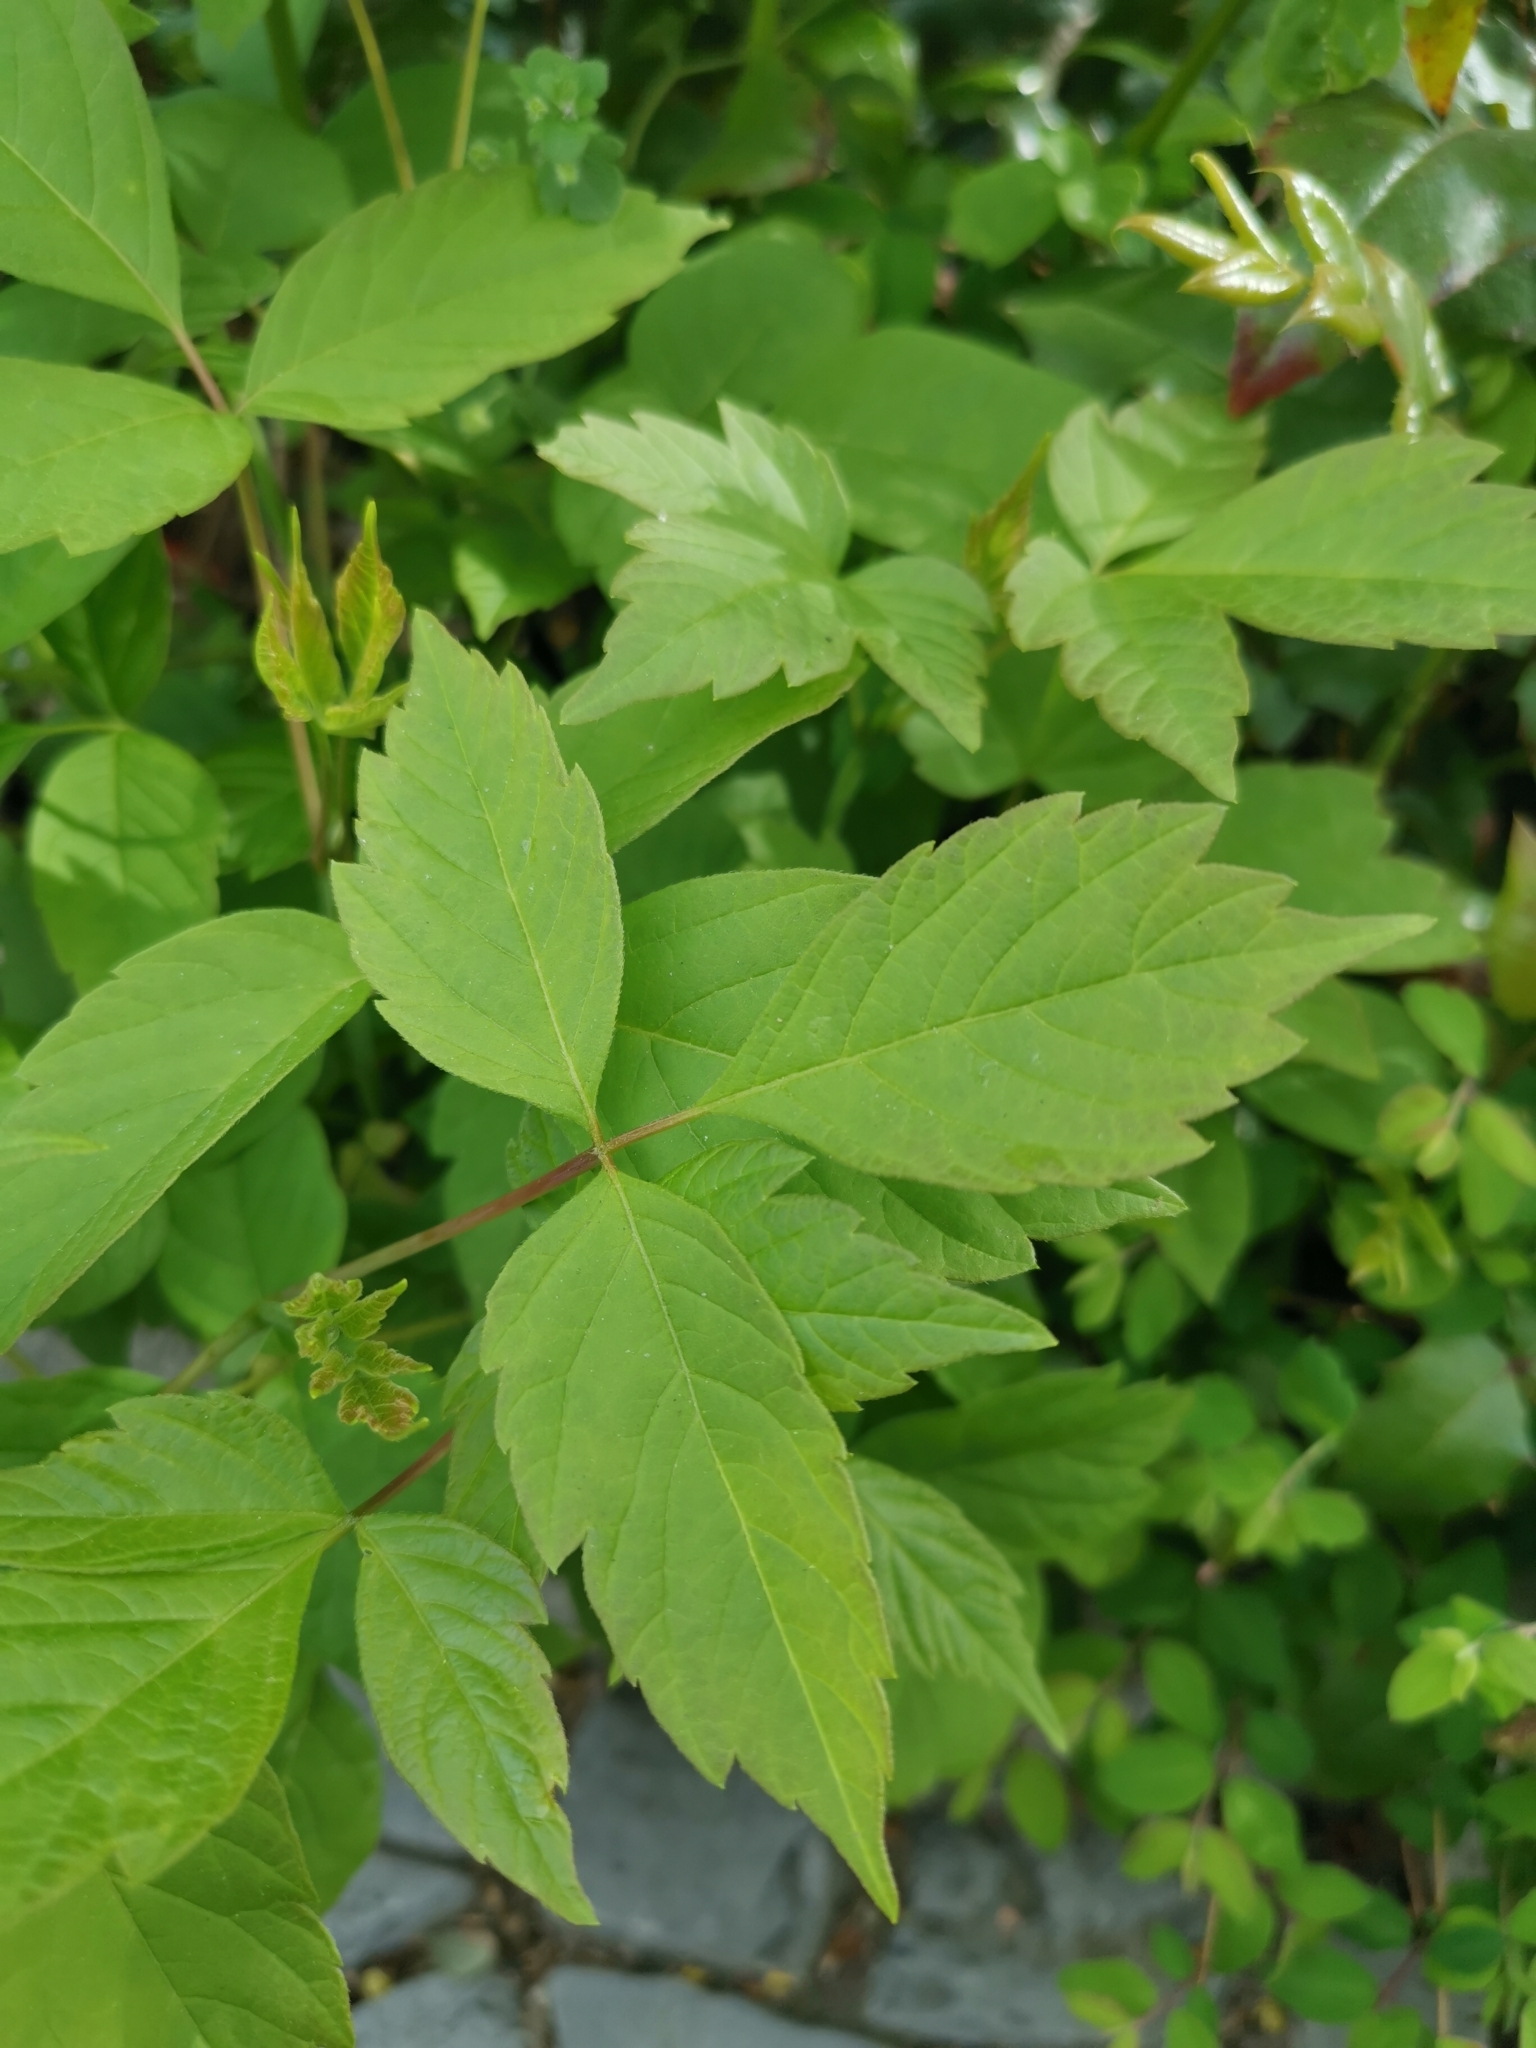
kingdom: Plantae
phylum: Tracheophyta
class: Magnoliopsida
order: Sapindales
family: Sapindaceae
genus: Acer
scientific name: Acer negundo
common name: Ashleaf maple
